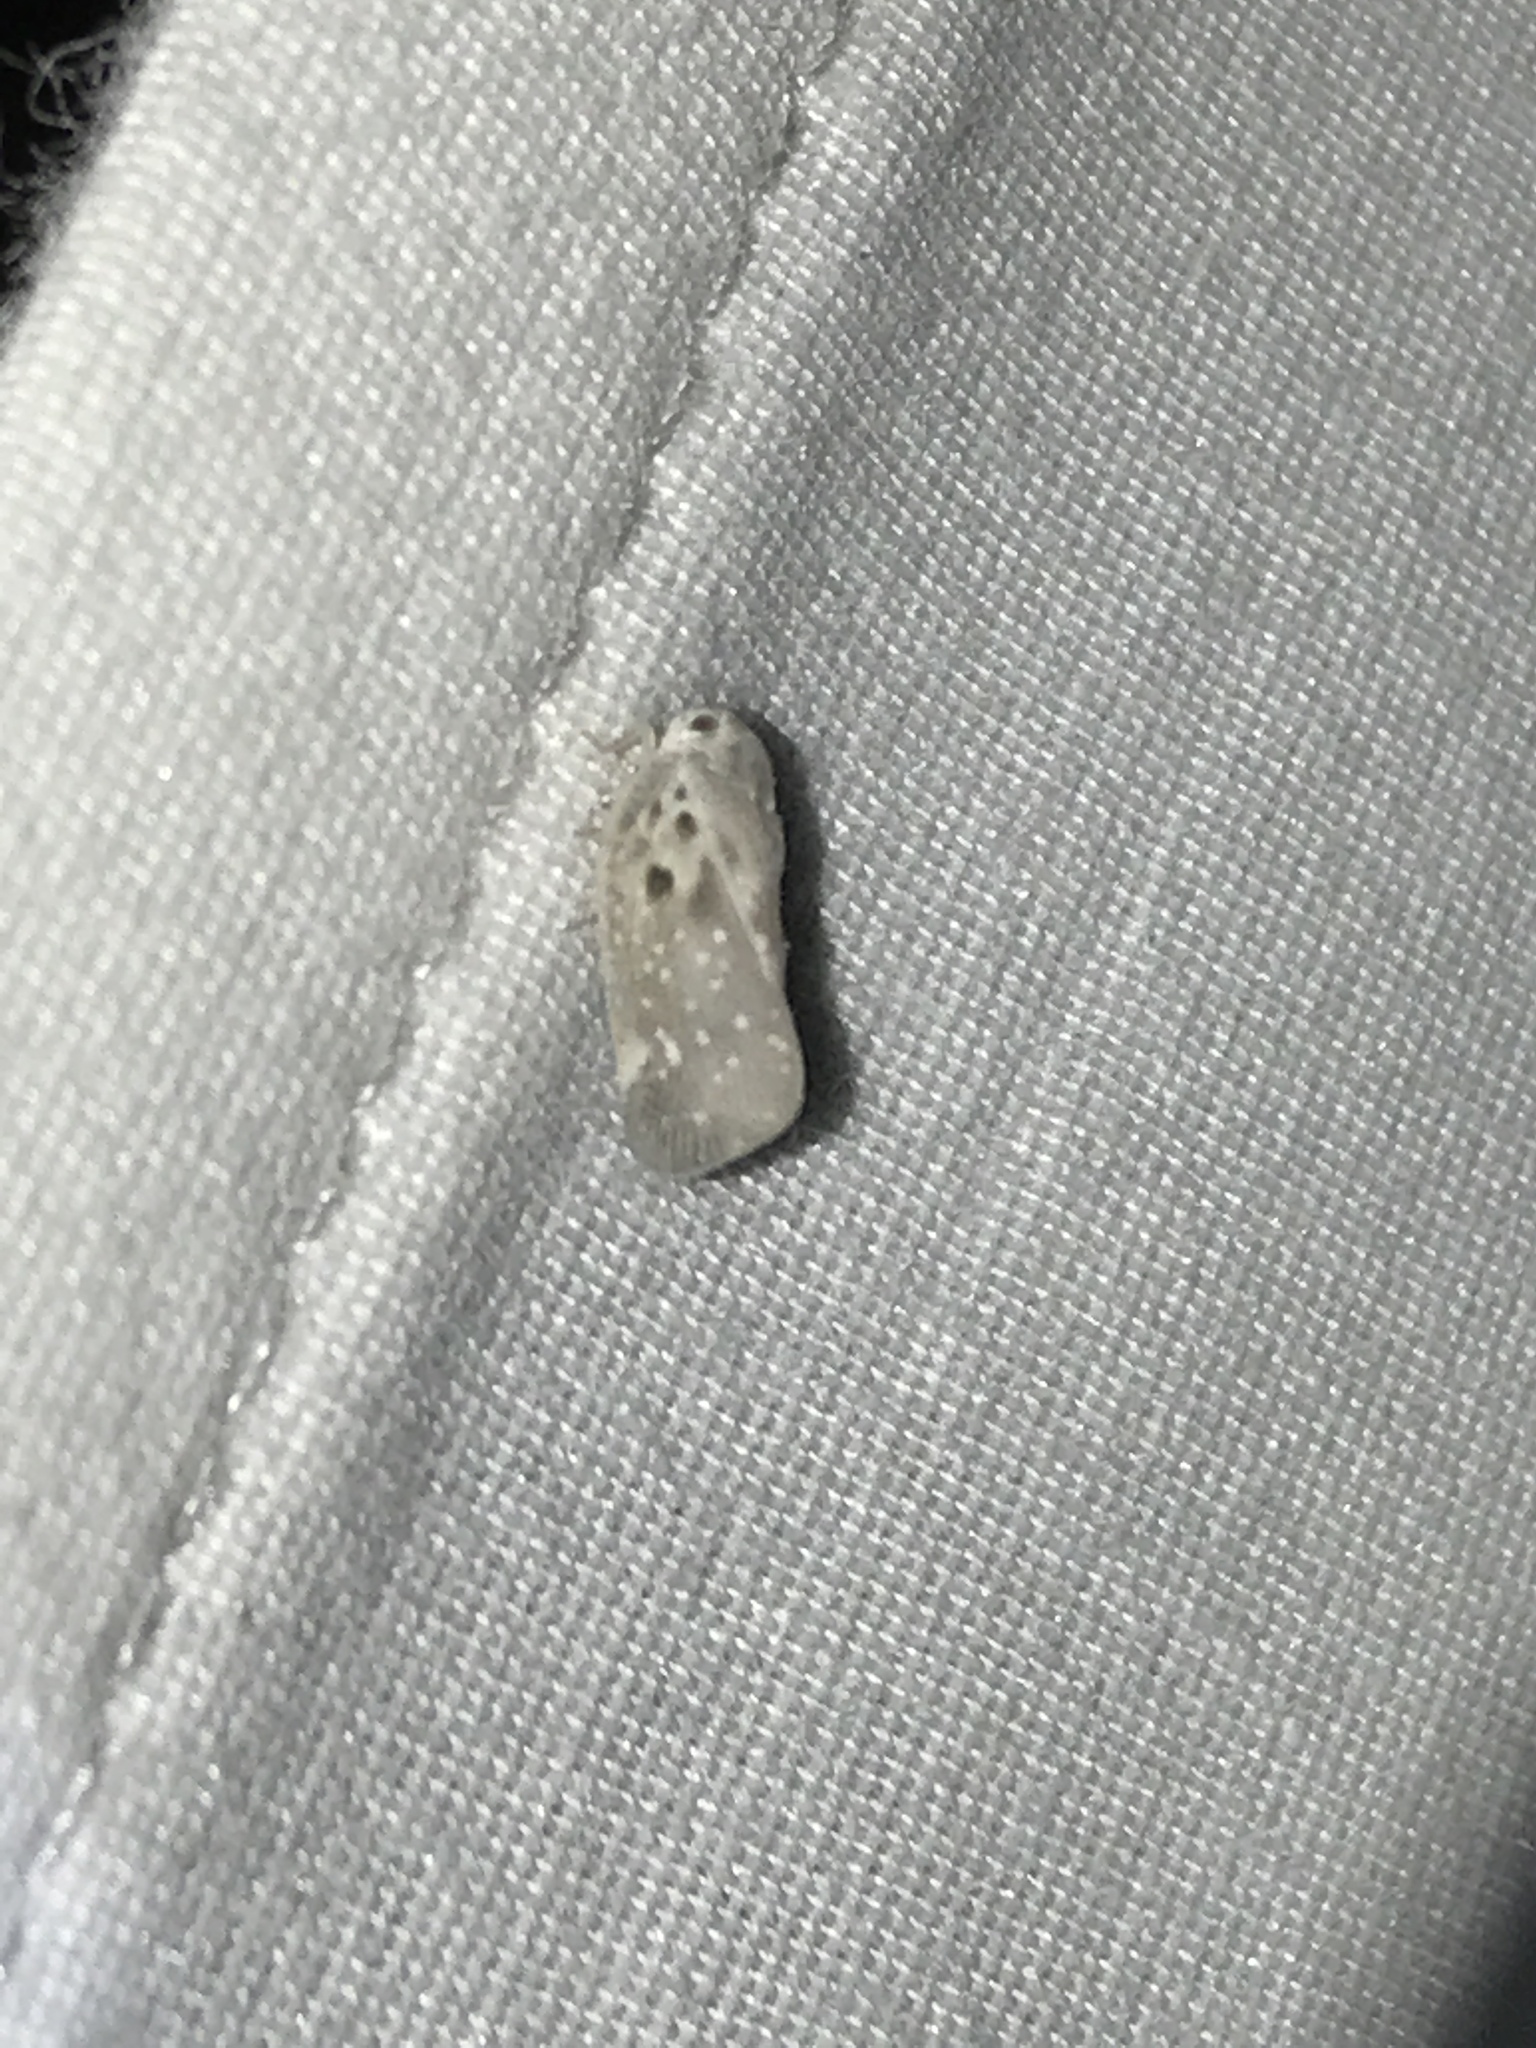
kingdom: Animalia
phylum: Arthropoda
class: Insecta
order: Hemiptera
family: Flatidae
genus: Metcalfa
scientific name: Metcalfa pruinosa
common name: Citrus flatid planthopper
